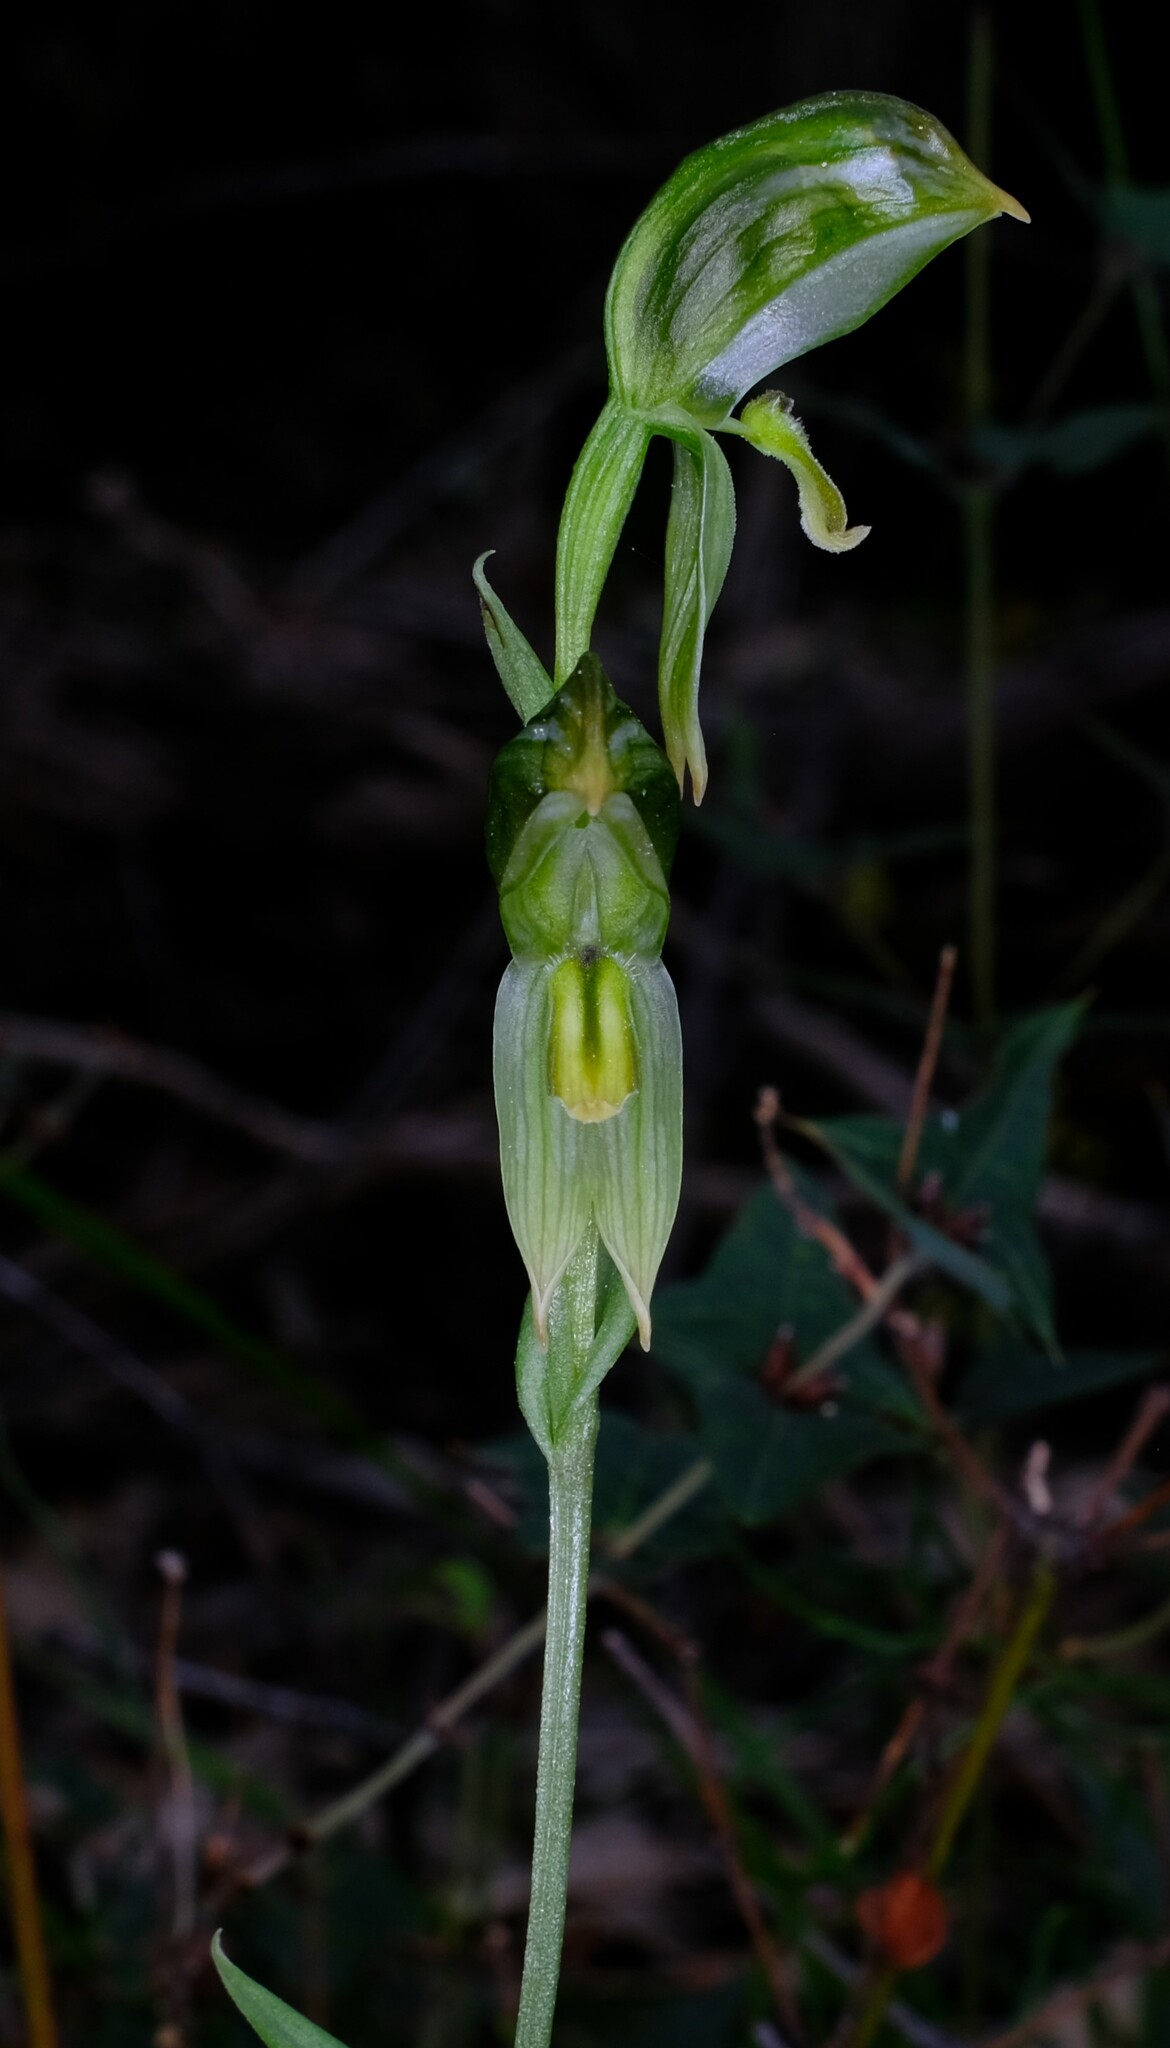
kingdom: Plantae
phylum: Tracheophyta
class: Liliopsida
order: Asparagales
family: Orchidaceae
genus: Pterostylis
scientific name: Pterostylis smaragdyna
